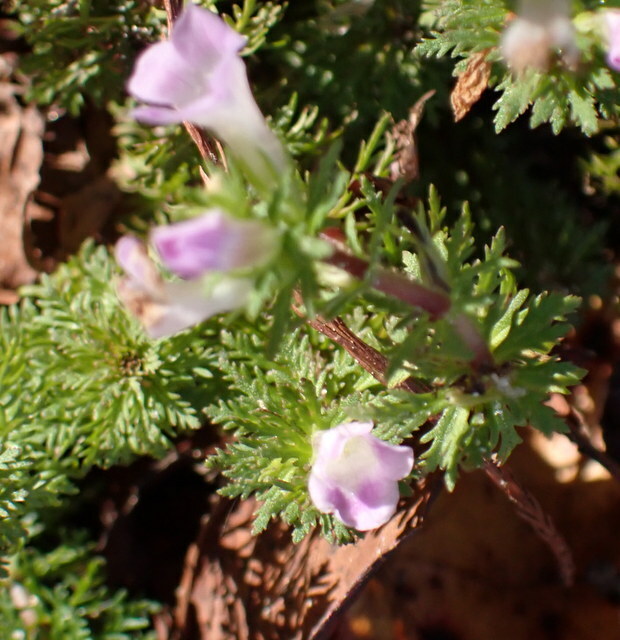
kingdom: Plantae
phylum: Tracheophyta
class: Magnoliopsida
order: Lamiales
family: Plantaginaceae
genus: Limnophila
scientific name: Limnophila sessiliflora
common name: Asian marshweed
